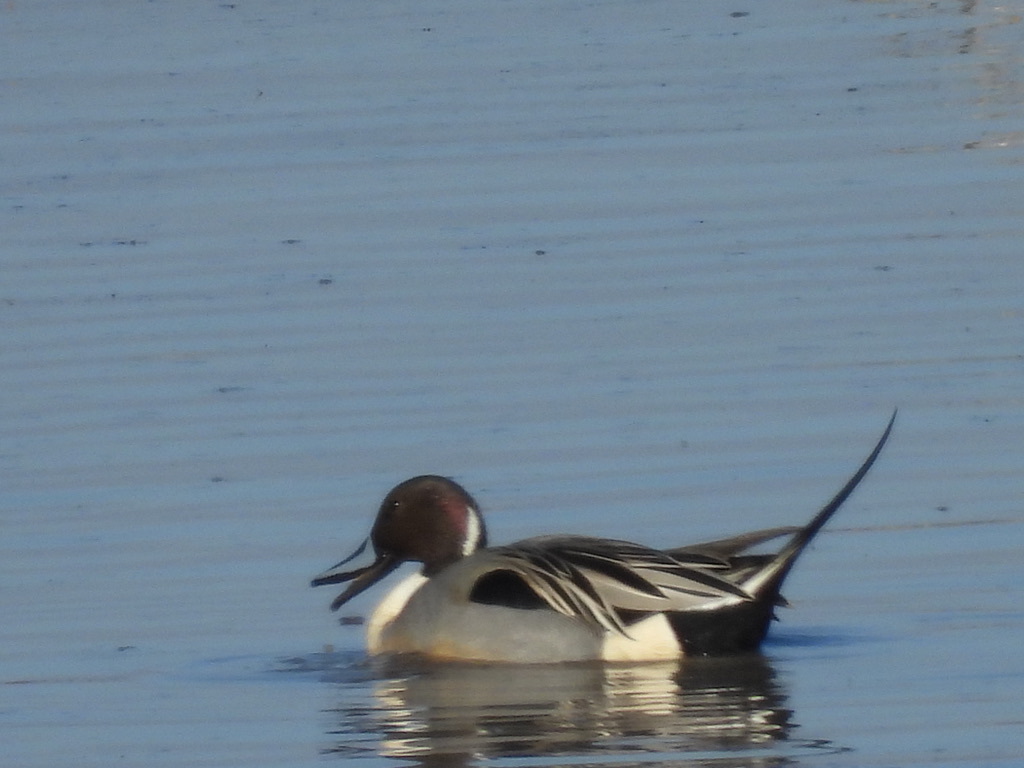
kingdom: Animalia
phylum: Chordata
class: Aves
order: Anseriformes
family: Anatidae
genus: Anas
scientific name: Anas acuta
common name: Northern pintail
